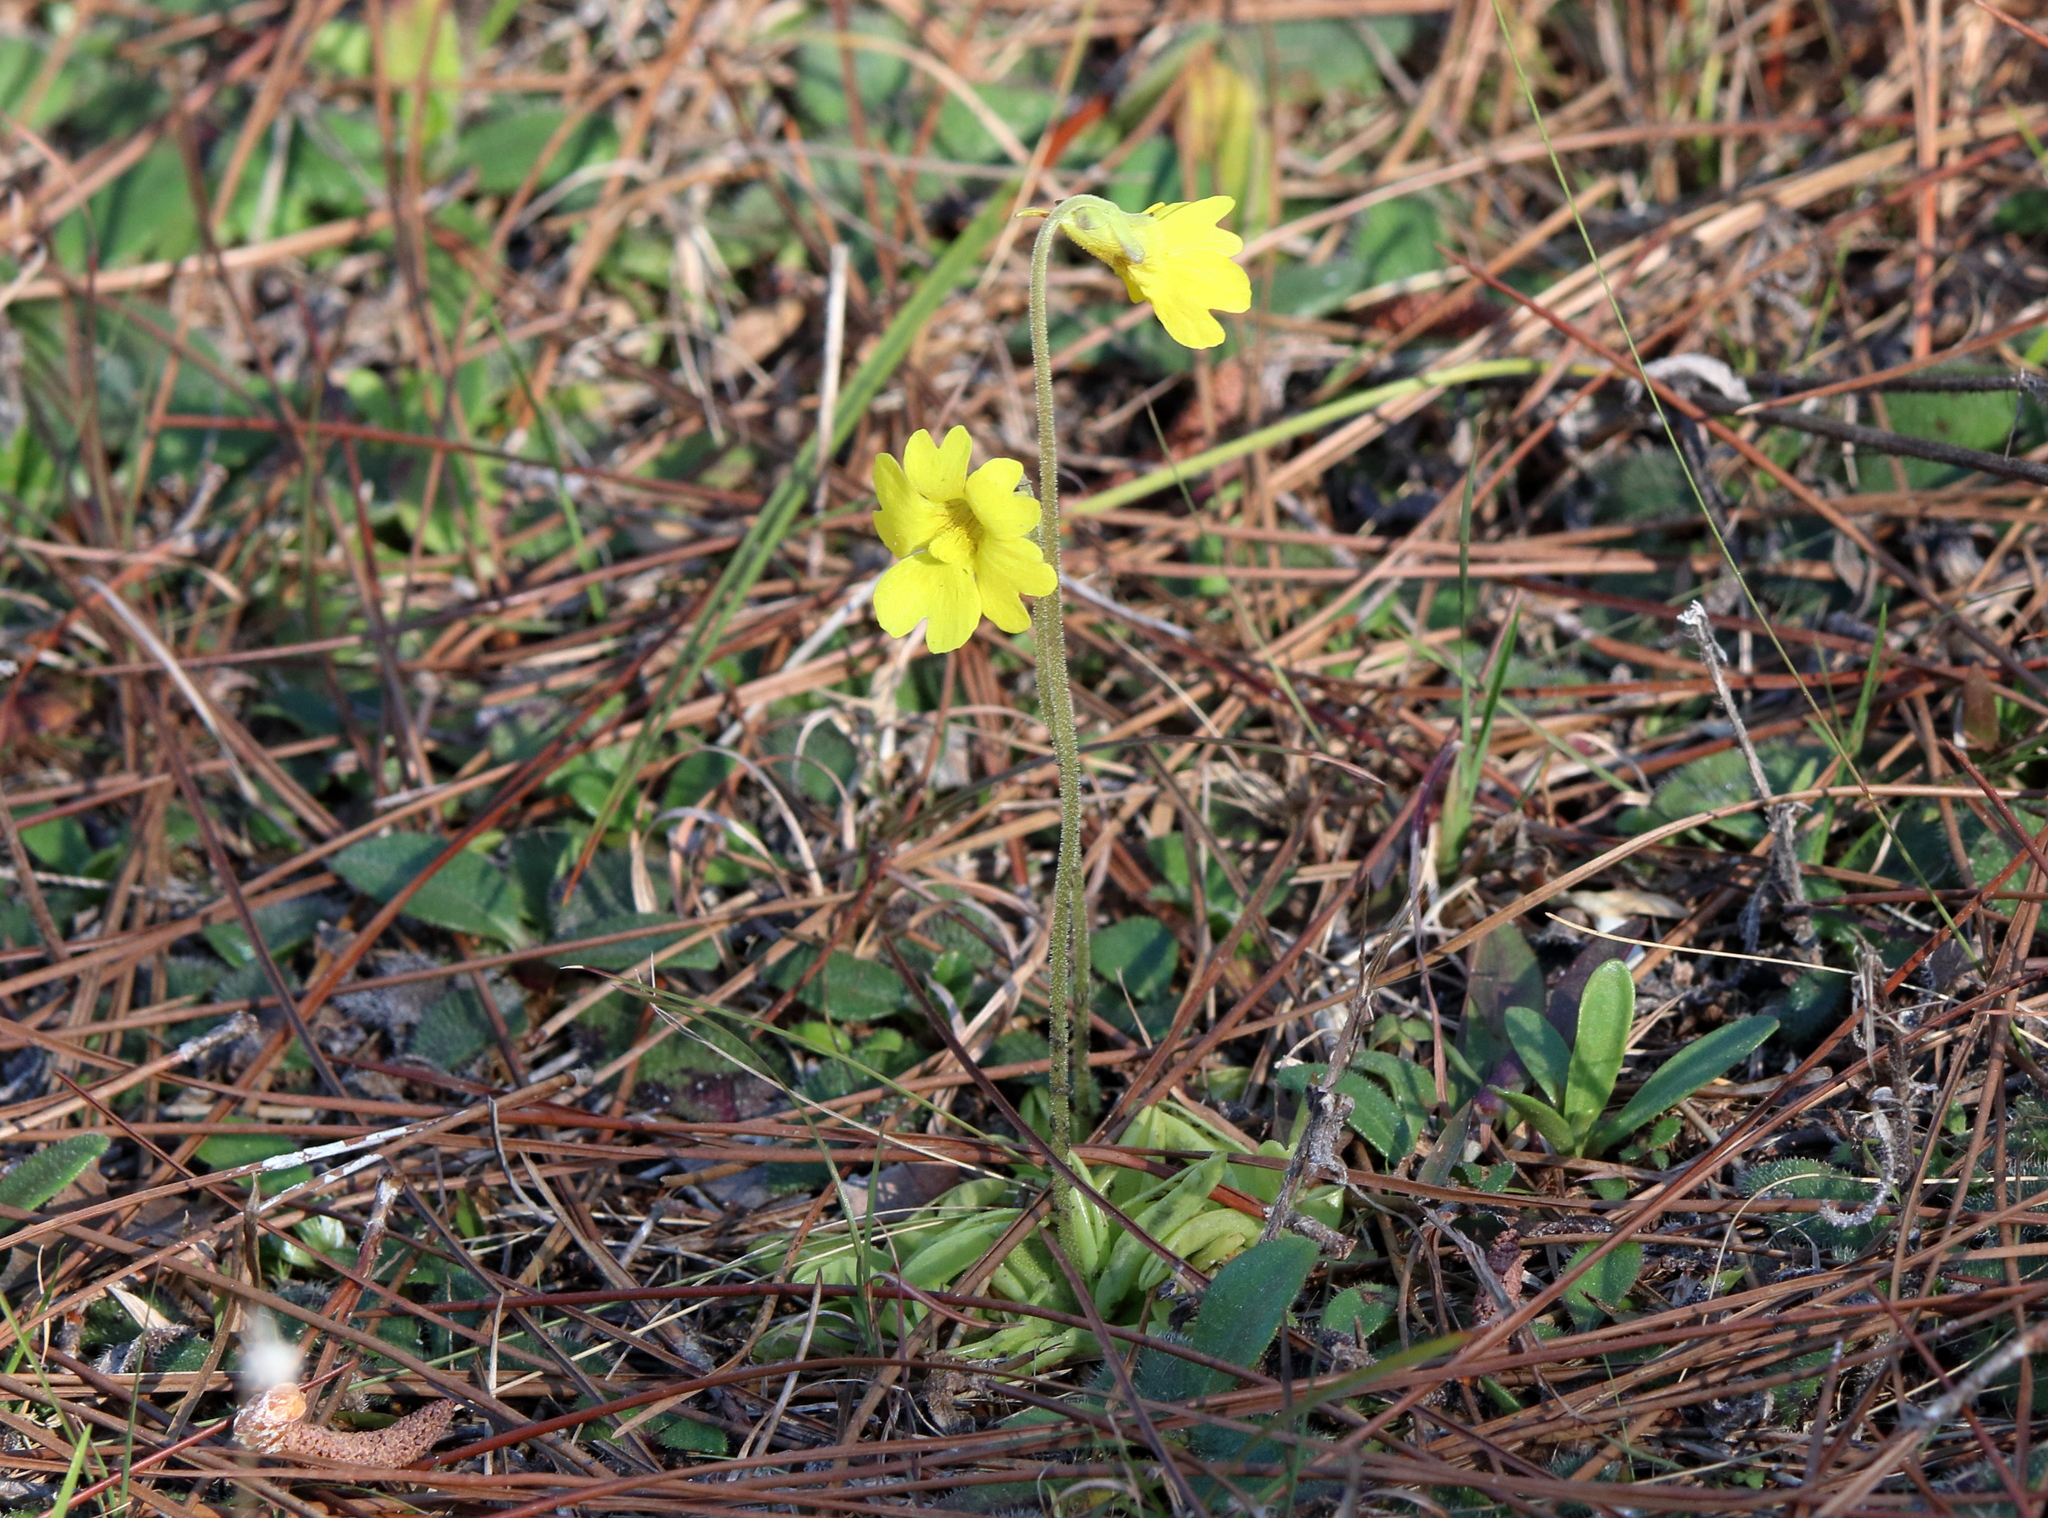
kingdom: Plantae
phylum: Tracheophyta
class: Magnoliopsida
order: Lamiales
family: Lentibulariaceae
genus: Pinguicula
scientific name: Pinguicula lutea
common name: Yellow butterwort
